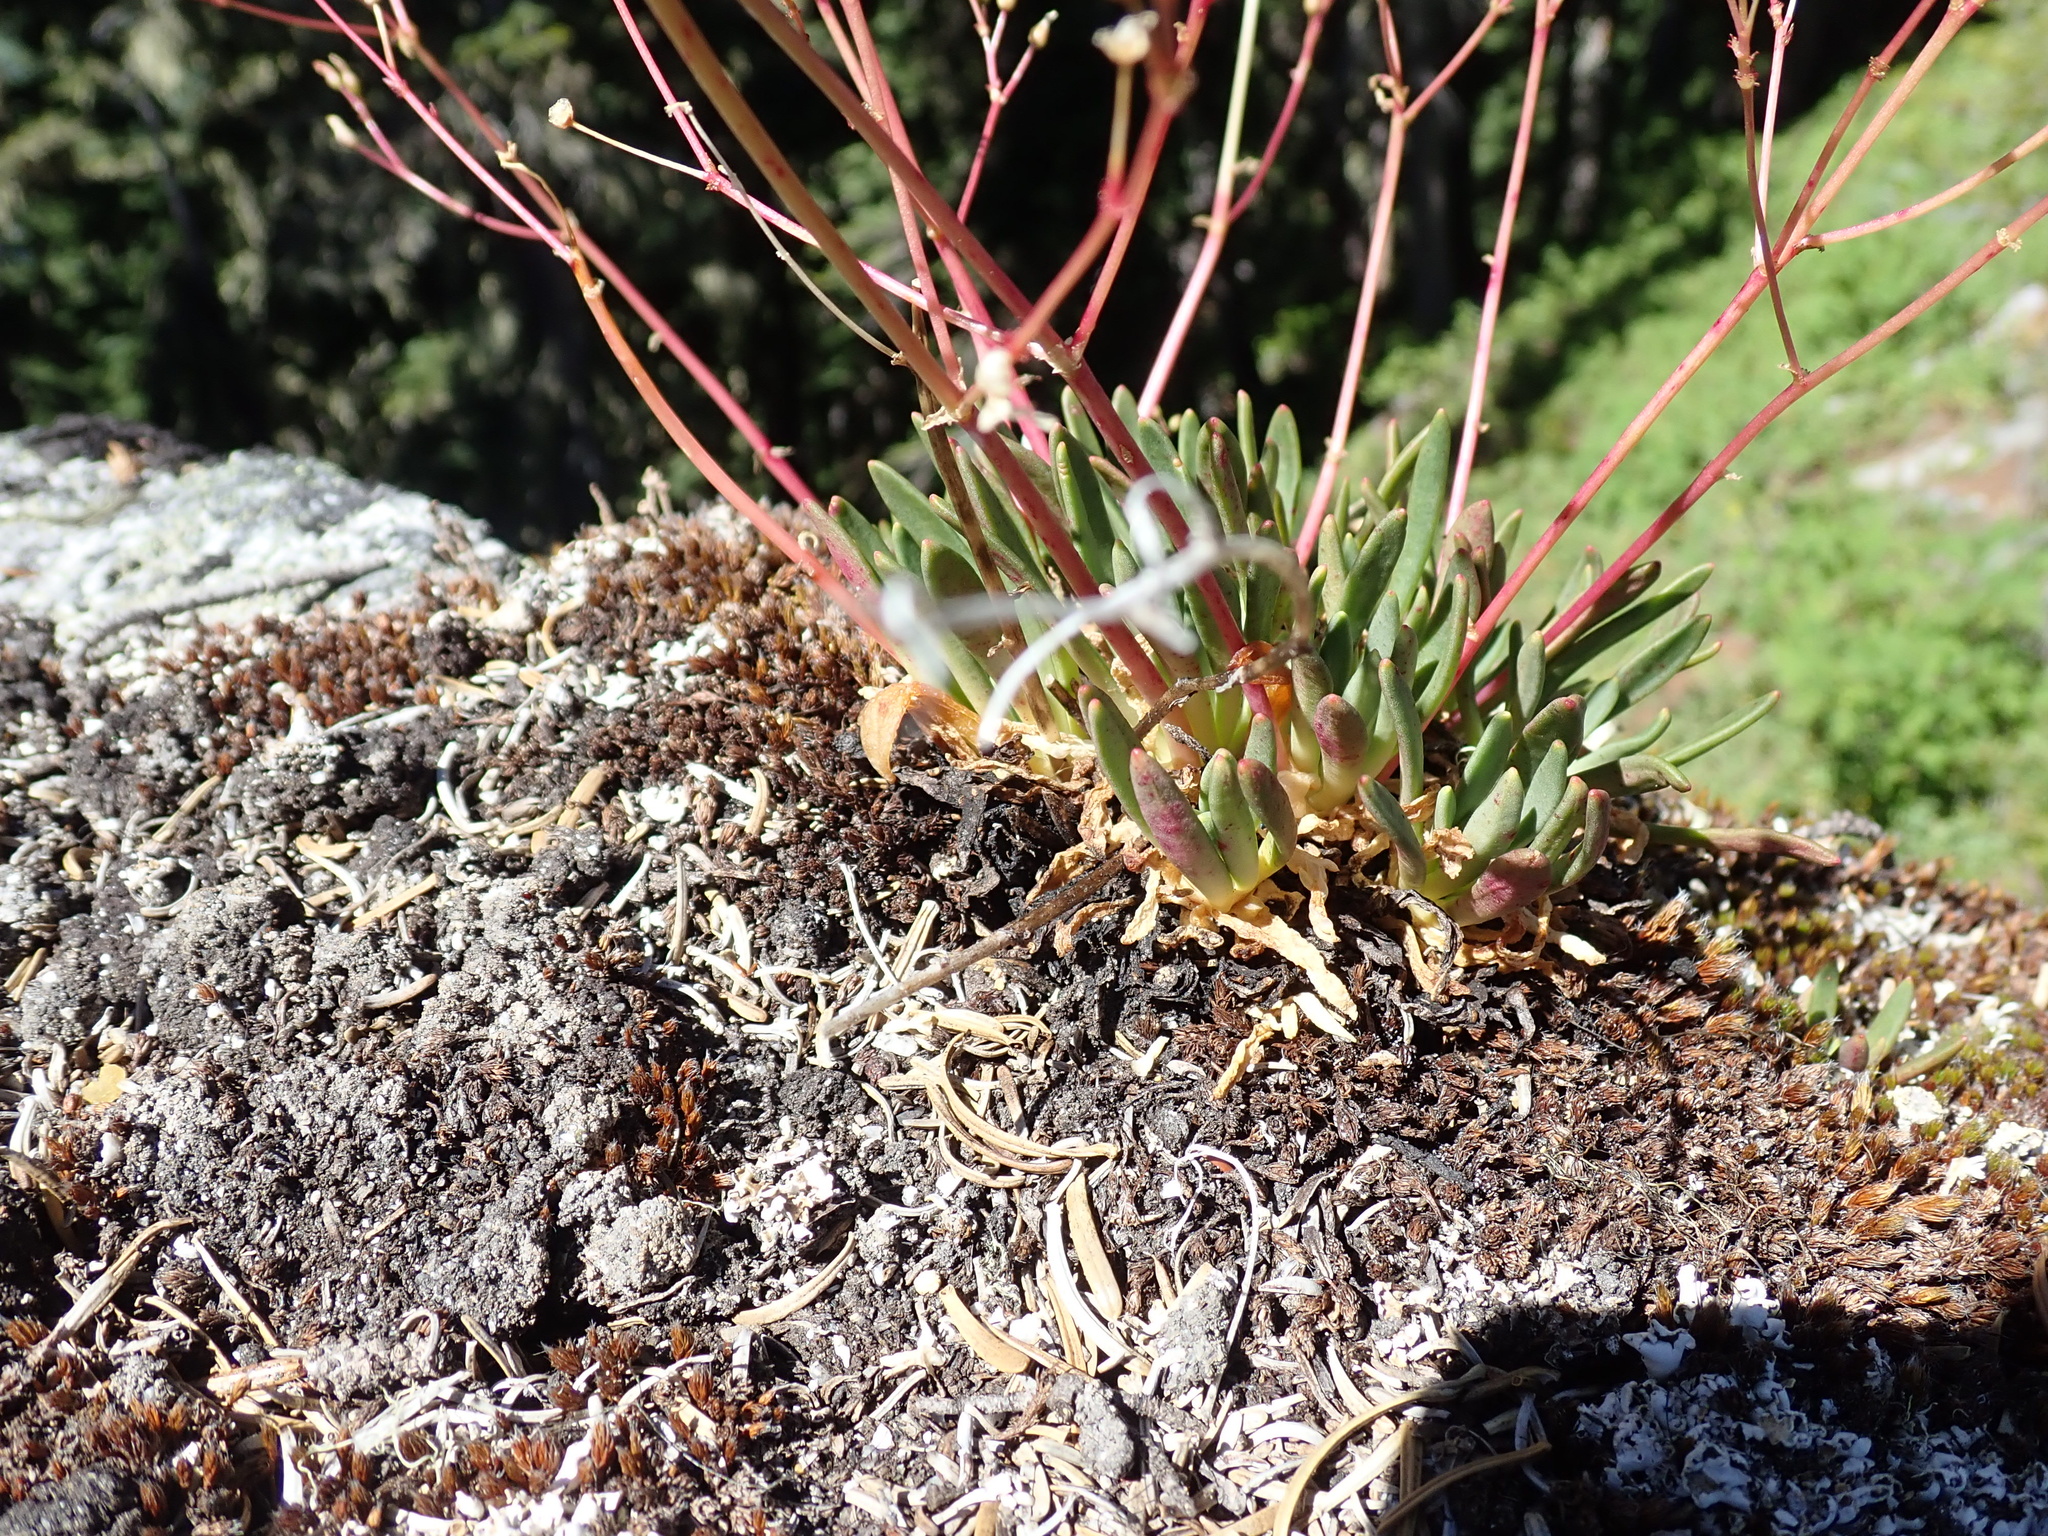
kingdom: Plantae
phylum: Tracheophyta
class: Magnoliopsida
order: Caryophyllales
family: Montiaceae
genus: Lewisia
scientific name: Lewisia columbiana
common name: Columbia lewisia
